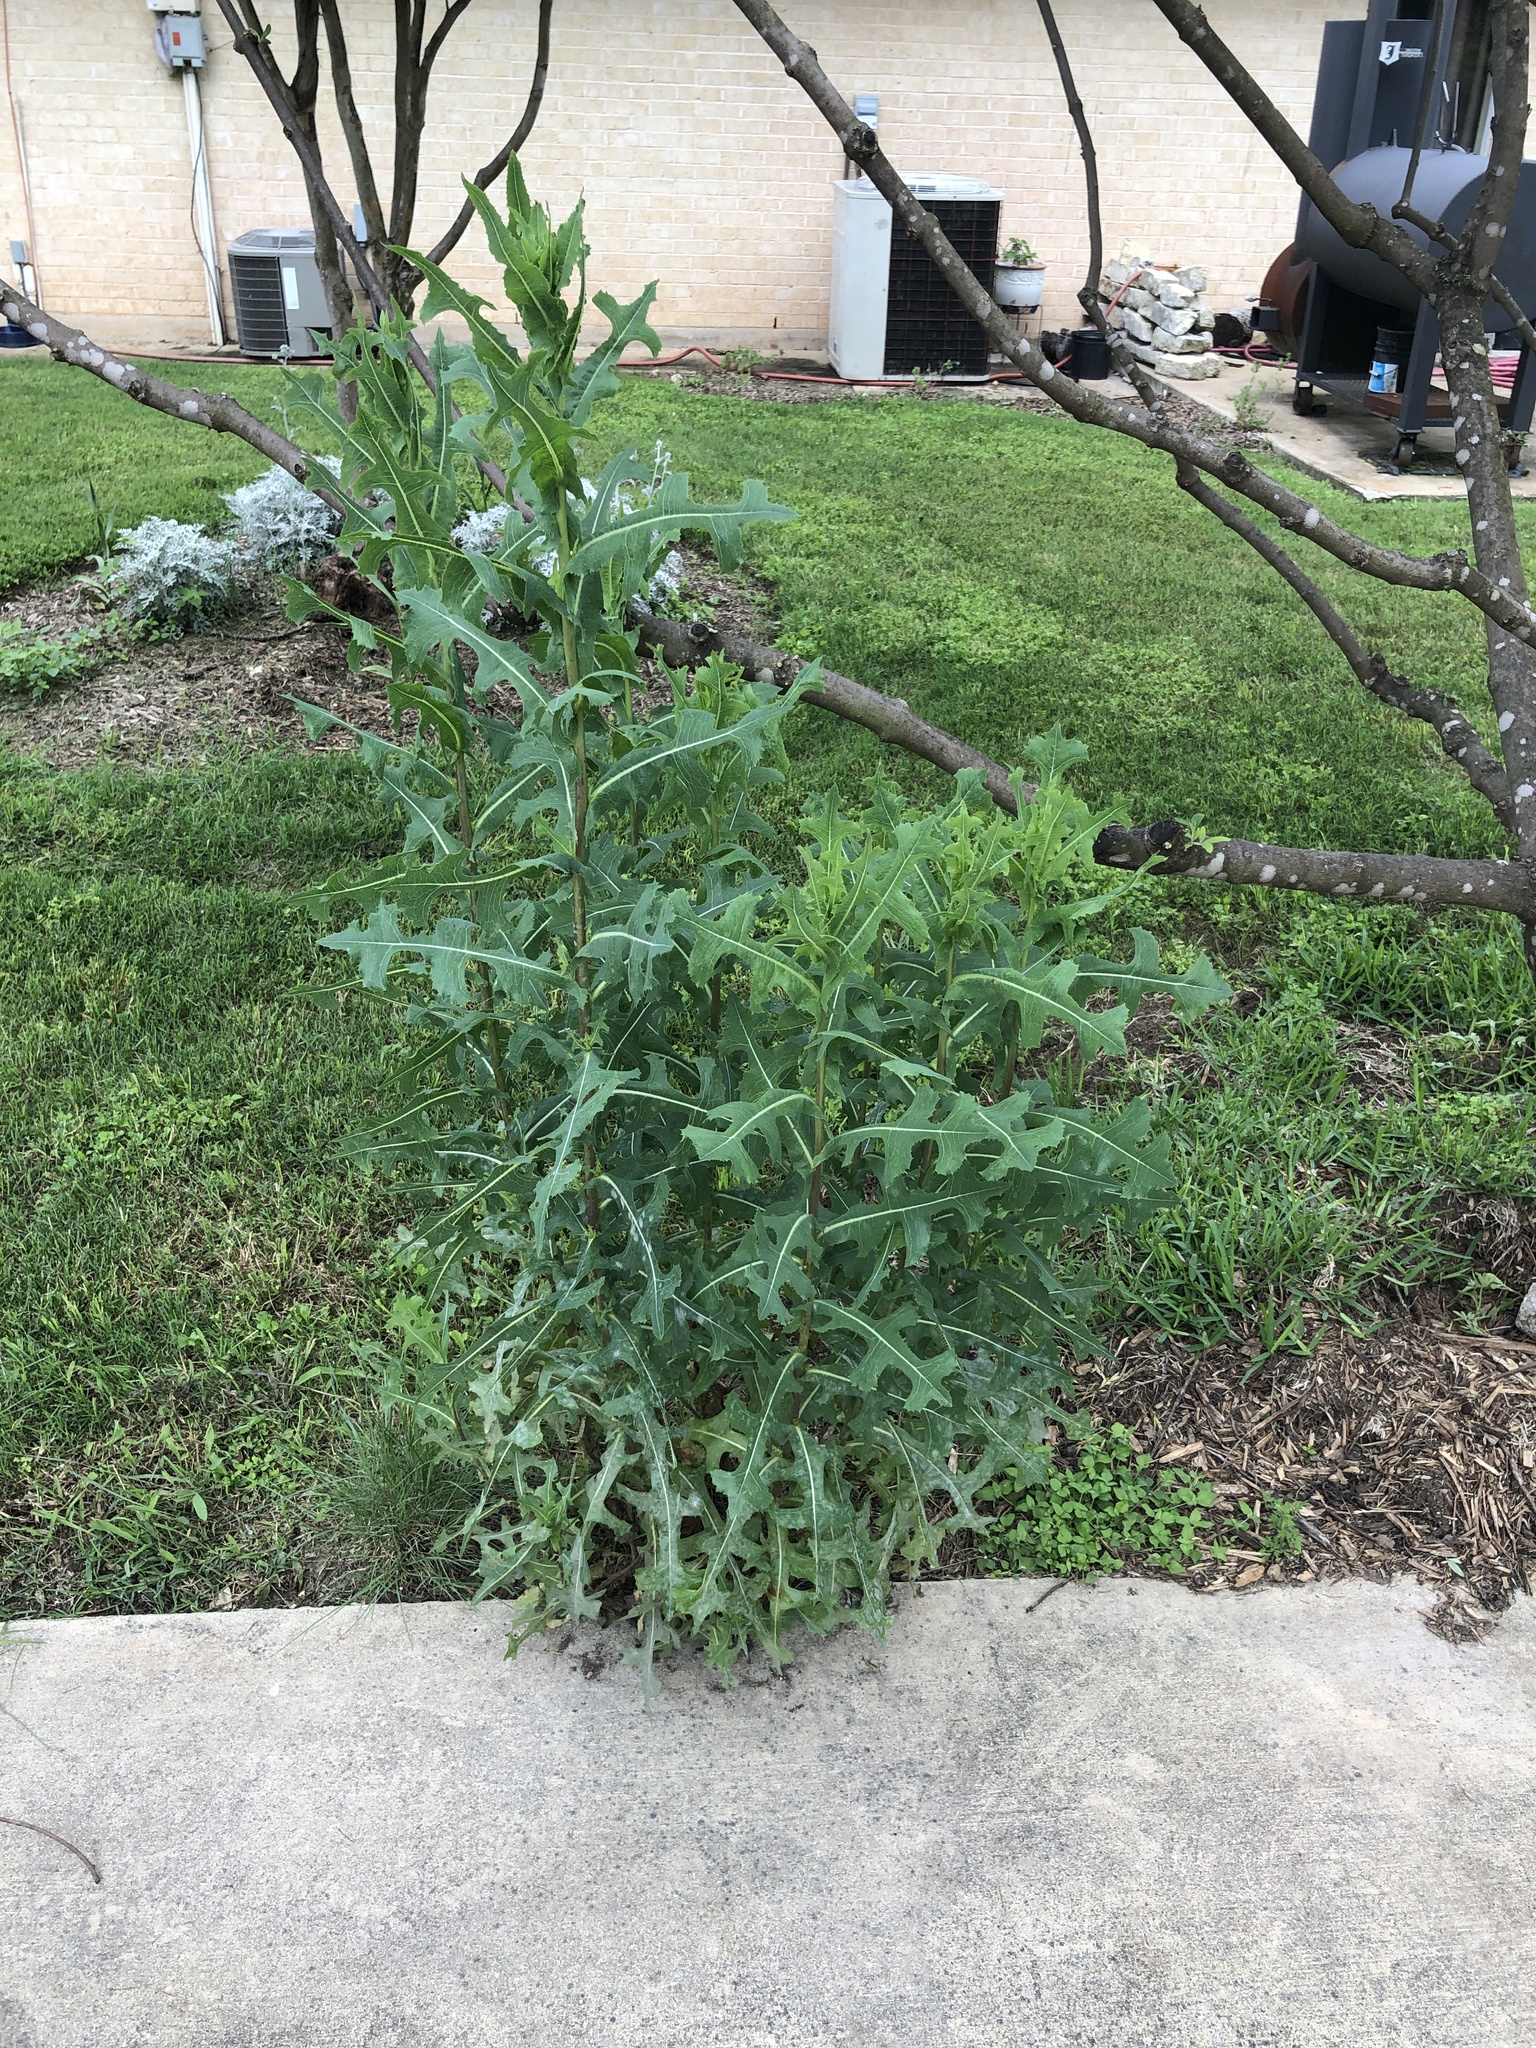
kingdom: Plantae
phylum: Tracheophyta
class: Magnoliopsida
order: Asterales
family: Asteraceae
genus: Lactuca
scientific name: Lactuca serriola
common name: Prickly lettuce
